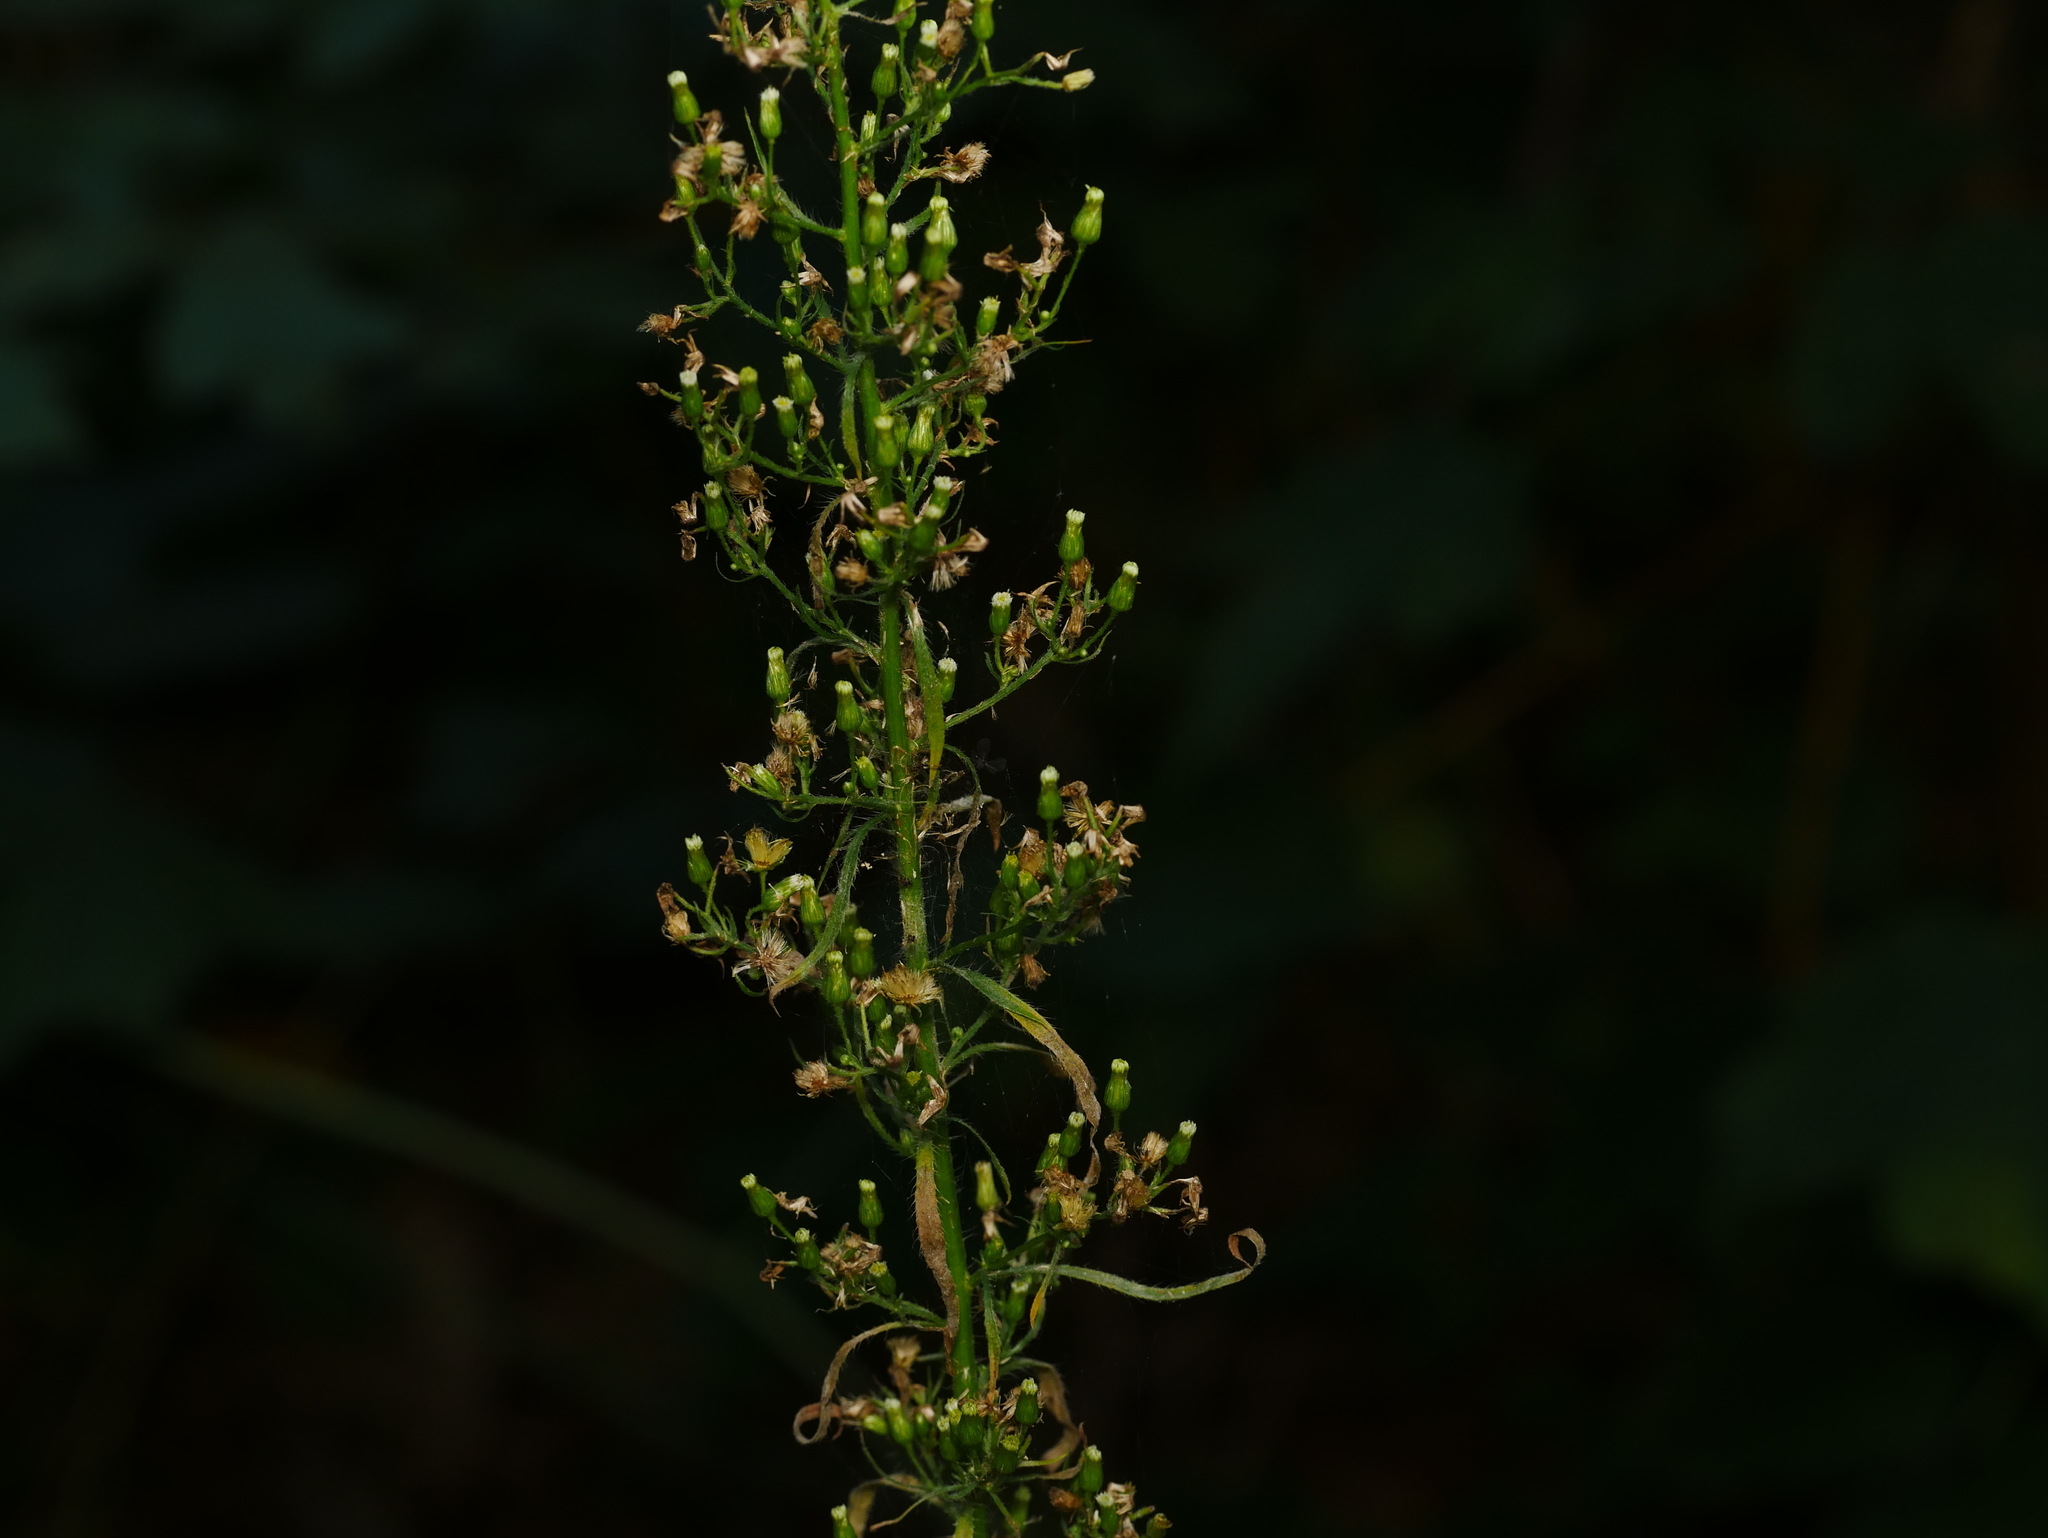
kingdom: Plantae
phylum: Tracheophyta
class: Magnoliopsida
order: Asterales
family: Asteraceae
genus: Erigeron
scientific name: Erigeron canadensis
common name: Canadian fleabane
